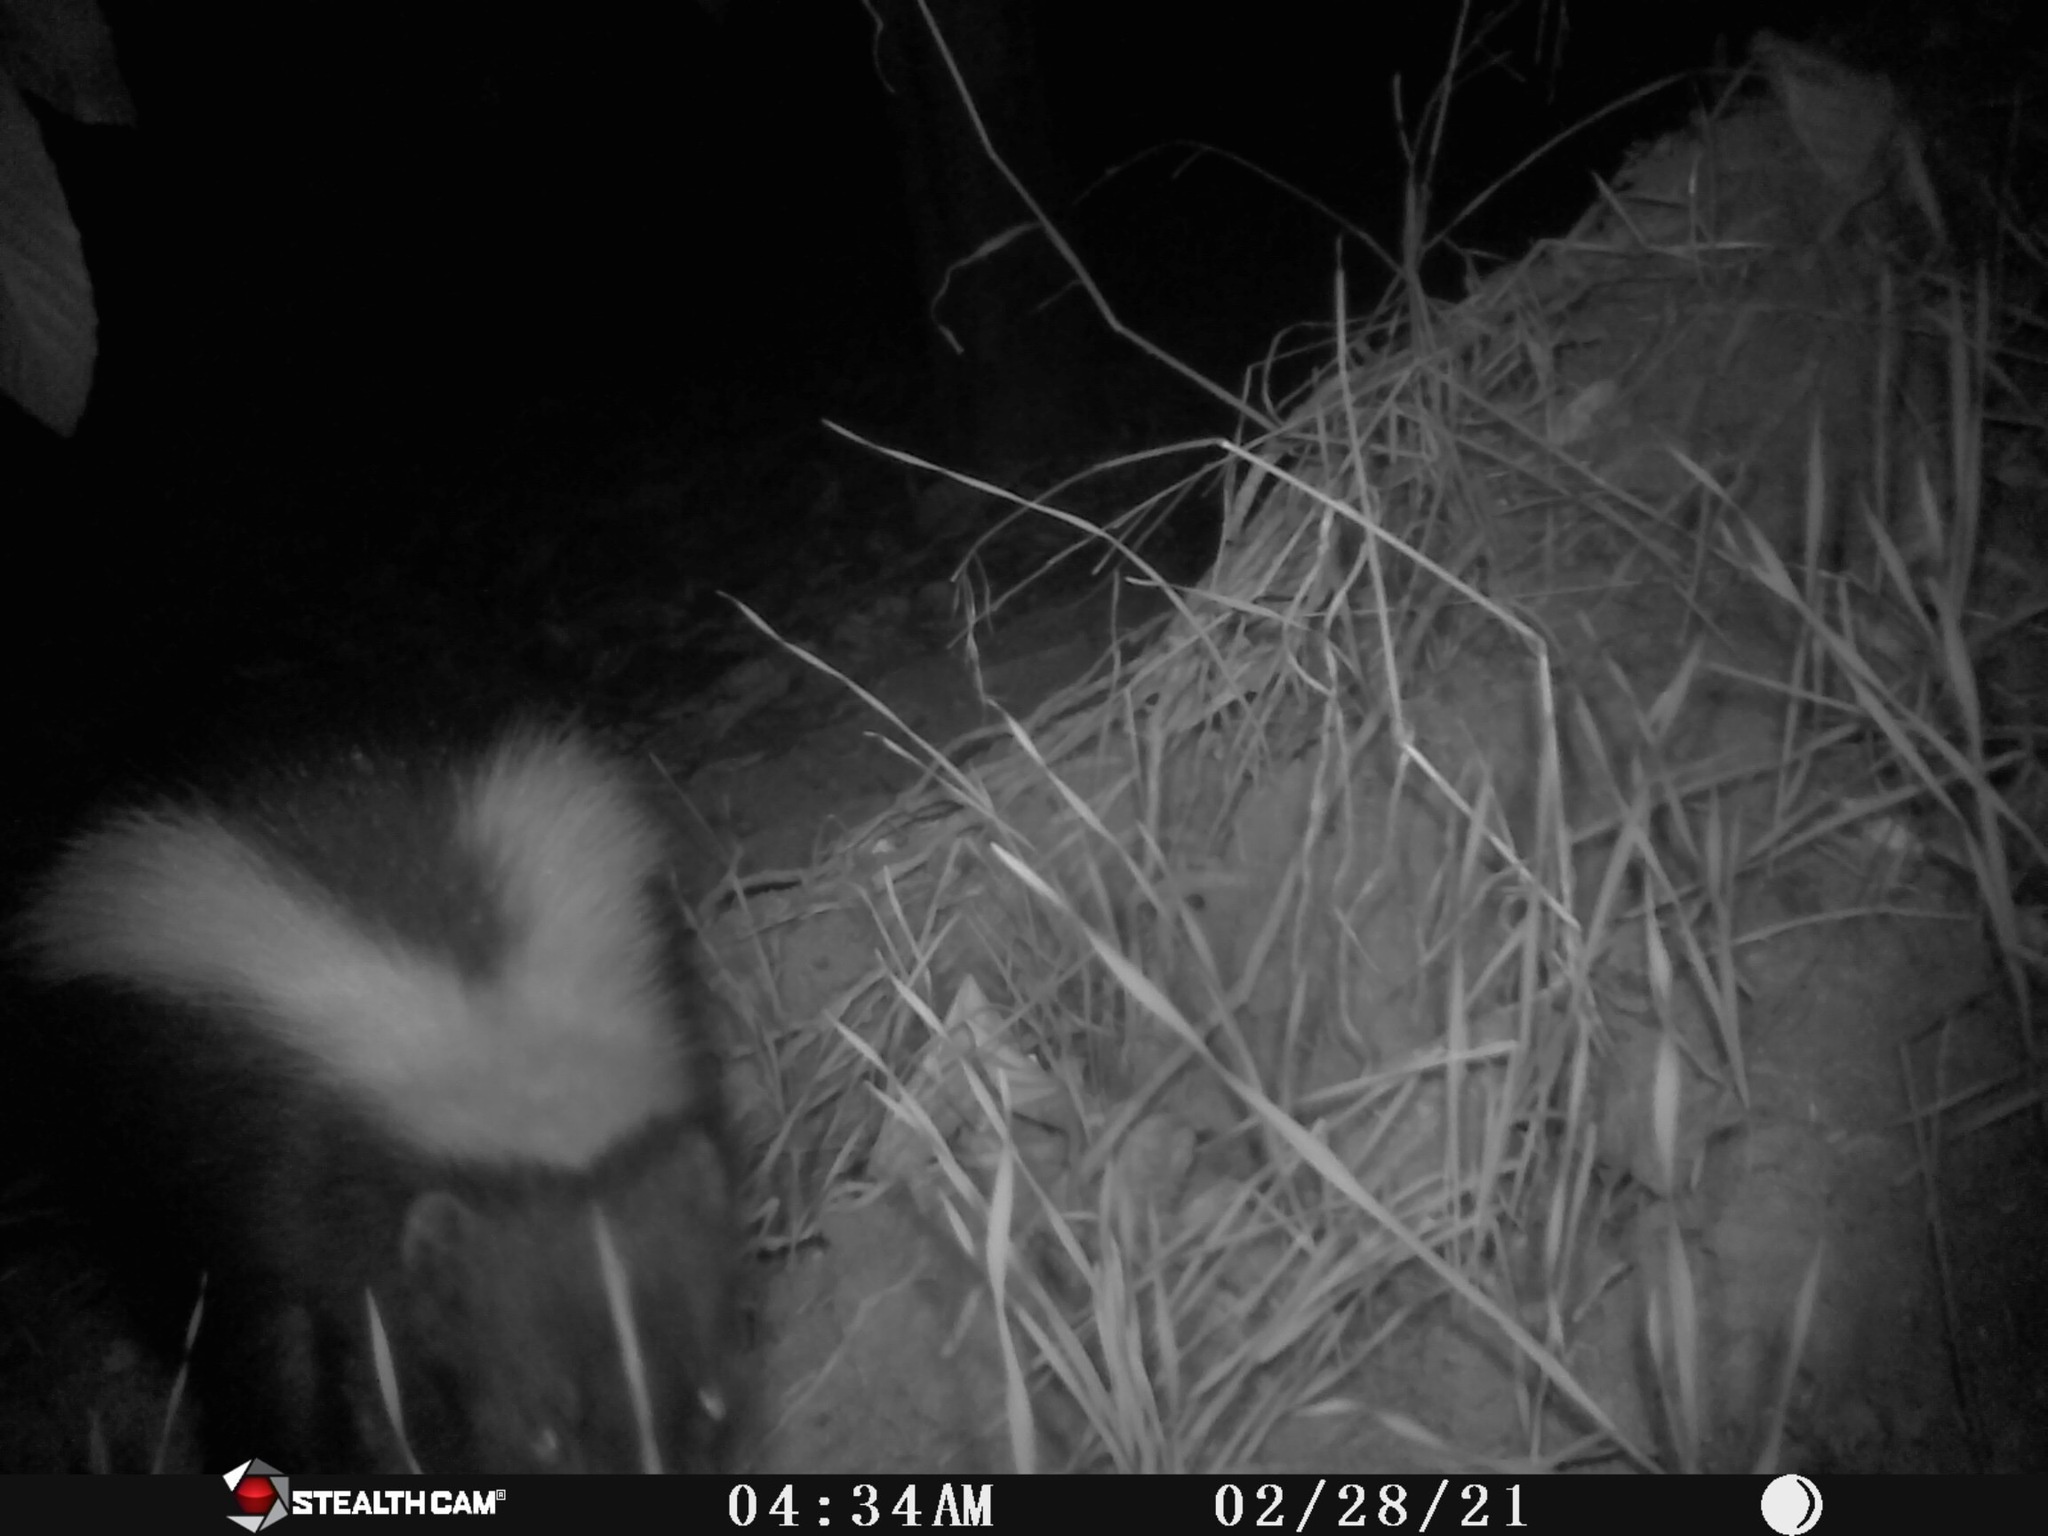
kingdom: Animalia
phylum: Chordata
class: Mammalia
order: Carnivora
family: Mephitidae
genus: Mephitis
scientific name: Mephitis mephitis
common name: Striped skunk
